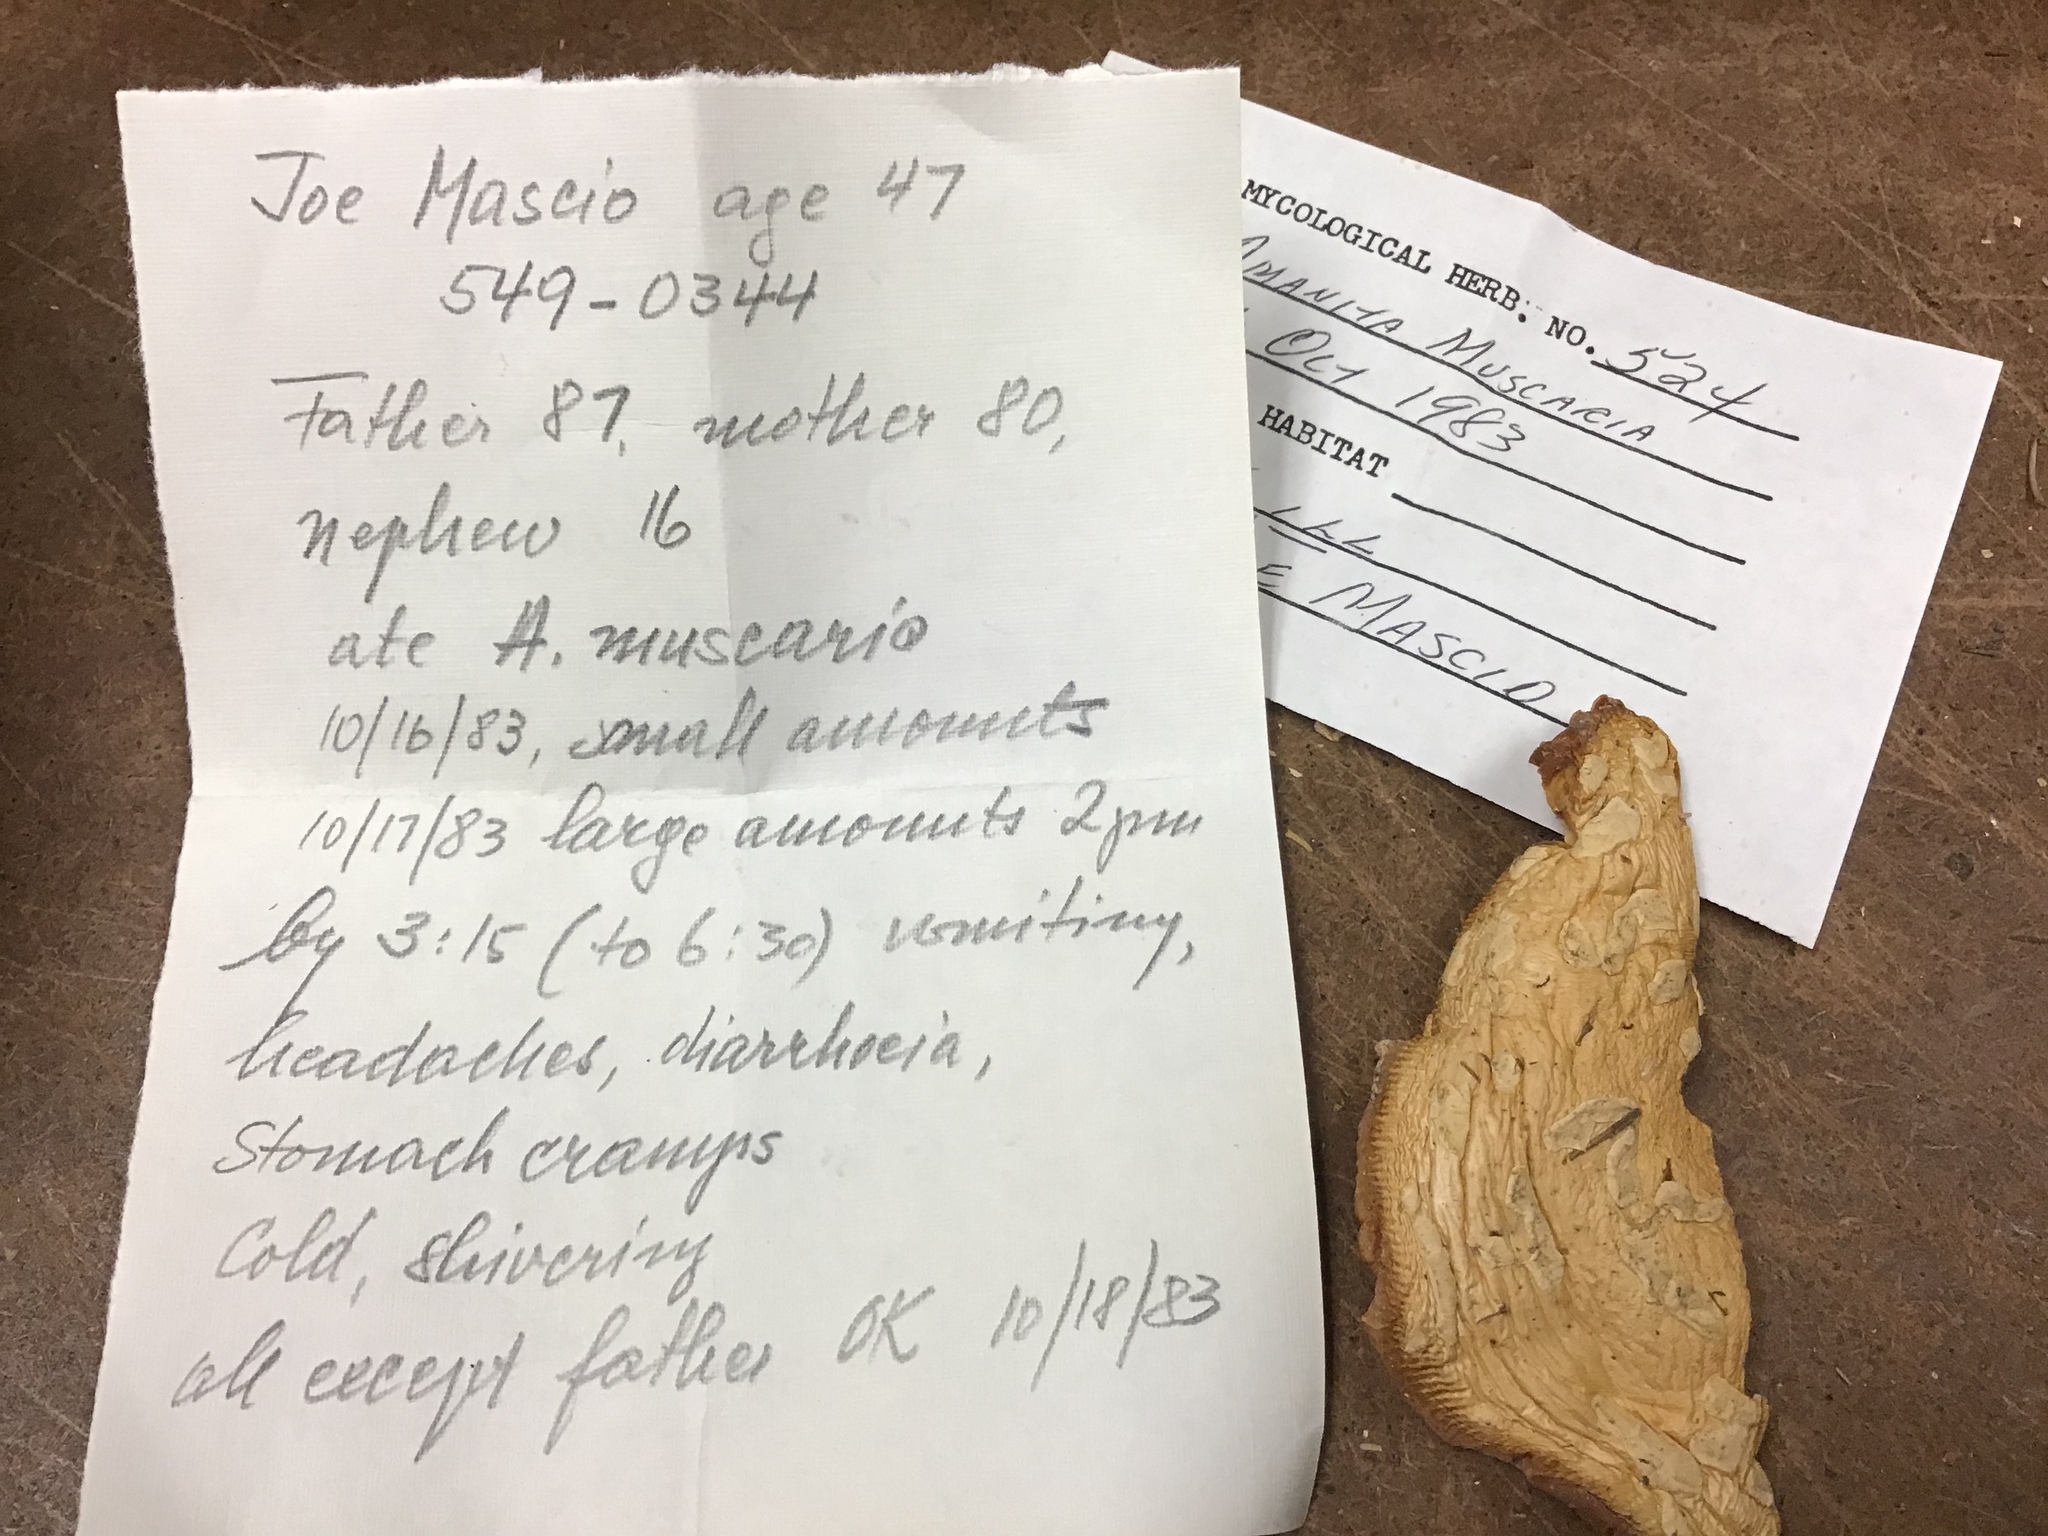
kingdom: Fungi
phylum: Basidiomycota
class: Agaricomycetes
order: Agaricales
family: Amanitaceae
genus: Amanita
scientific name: Amanita muscaria
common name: Fly agaric
